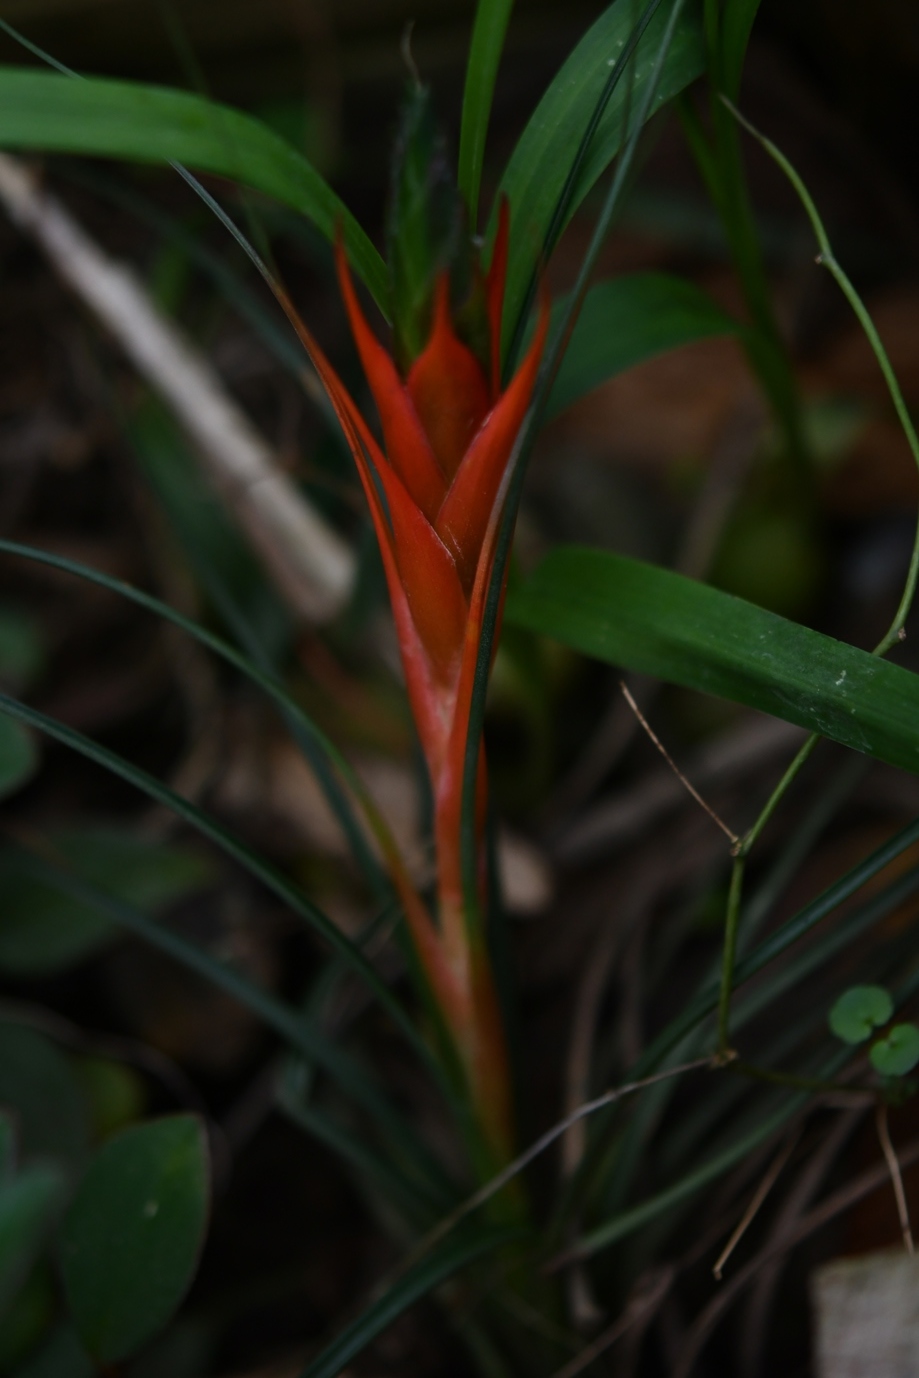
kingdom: Plantae
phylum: Tracheophyta
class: Liliopsida
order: Poales
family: Bromeliaceae
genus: Tillandsia
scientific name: Tillandsia punctulata
